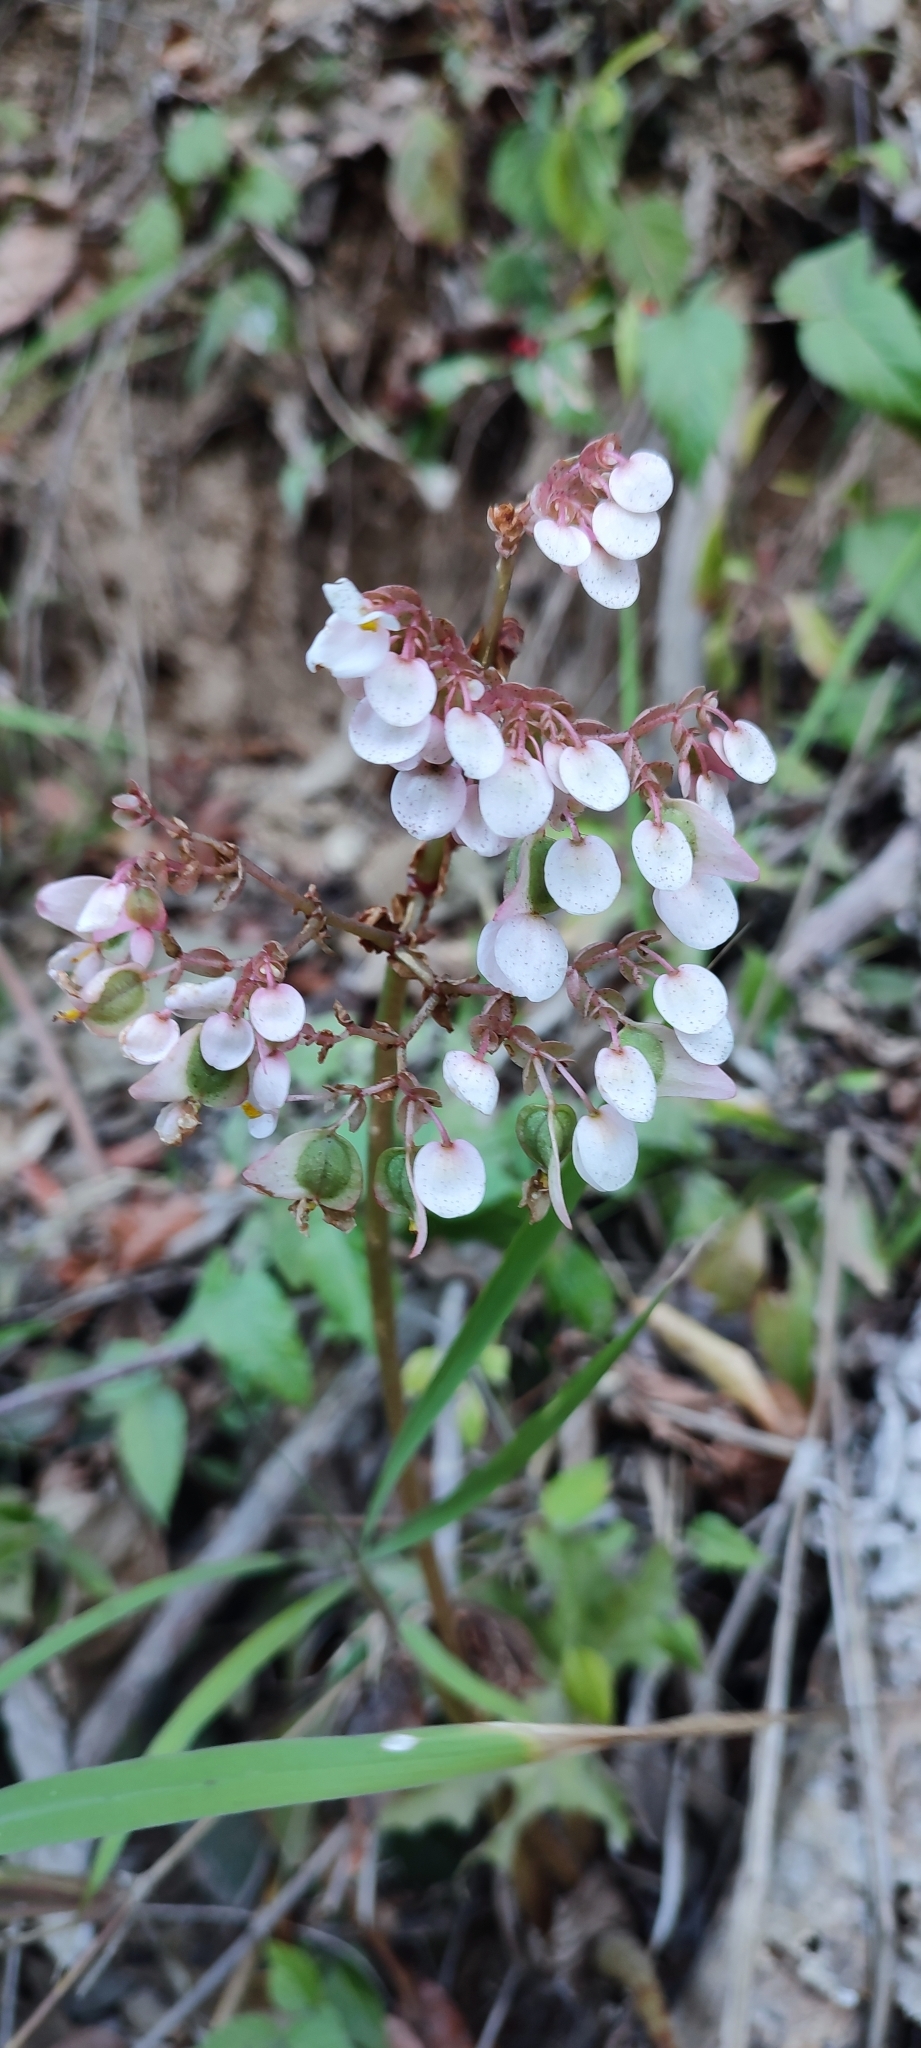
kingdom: Plantae
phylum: Tracheophyta
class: Magnoliopsida
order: Cucurbitales
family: Begoniaceae
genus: Begonia
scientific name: Begonia heracleifolia
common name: Star begonia
